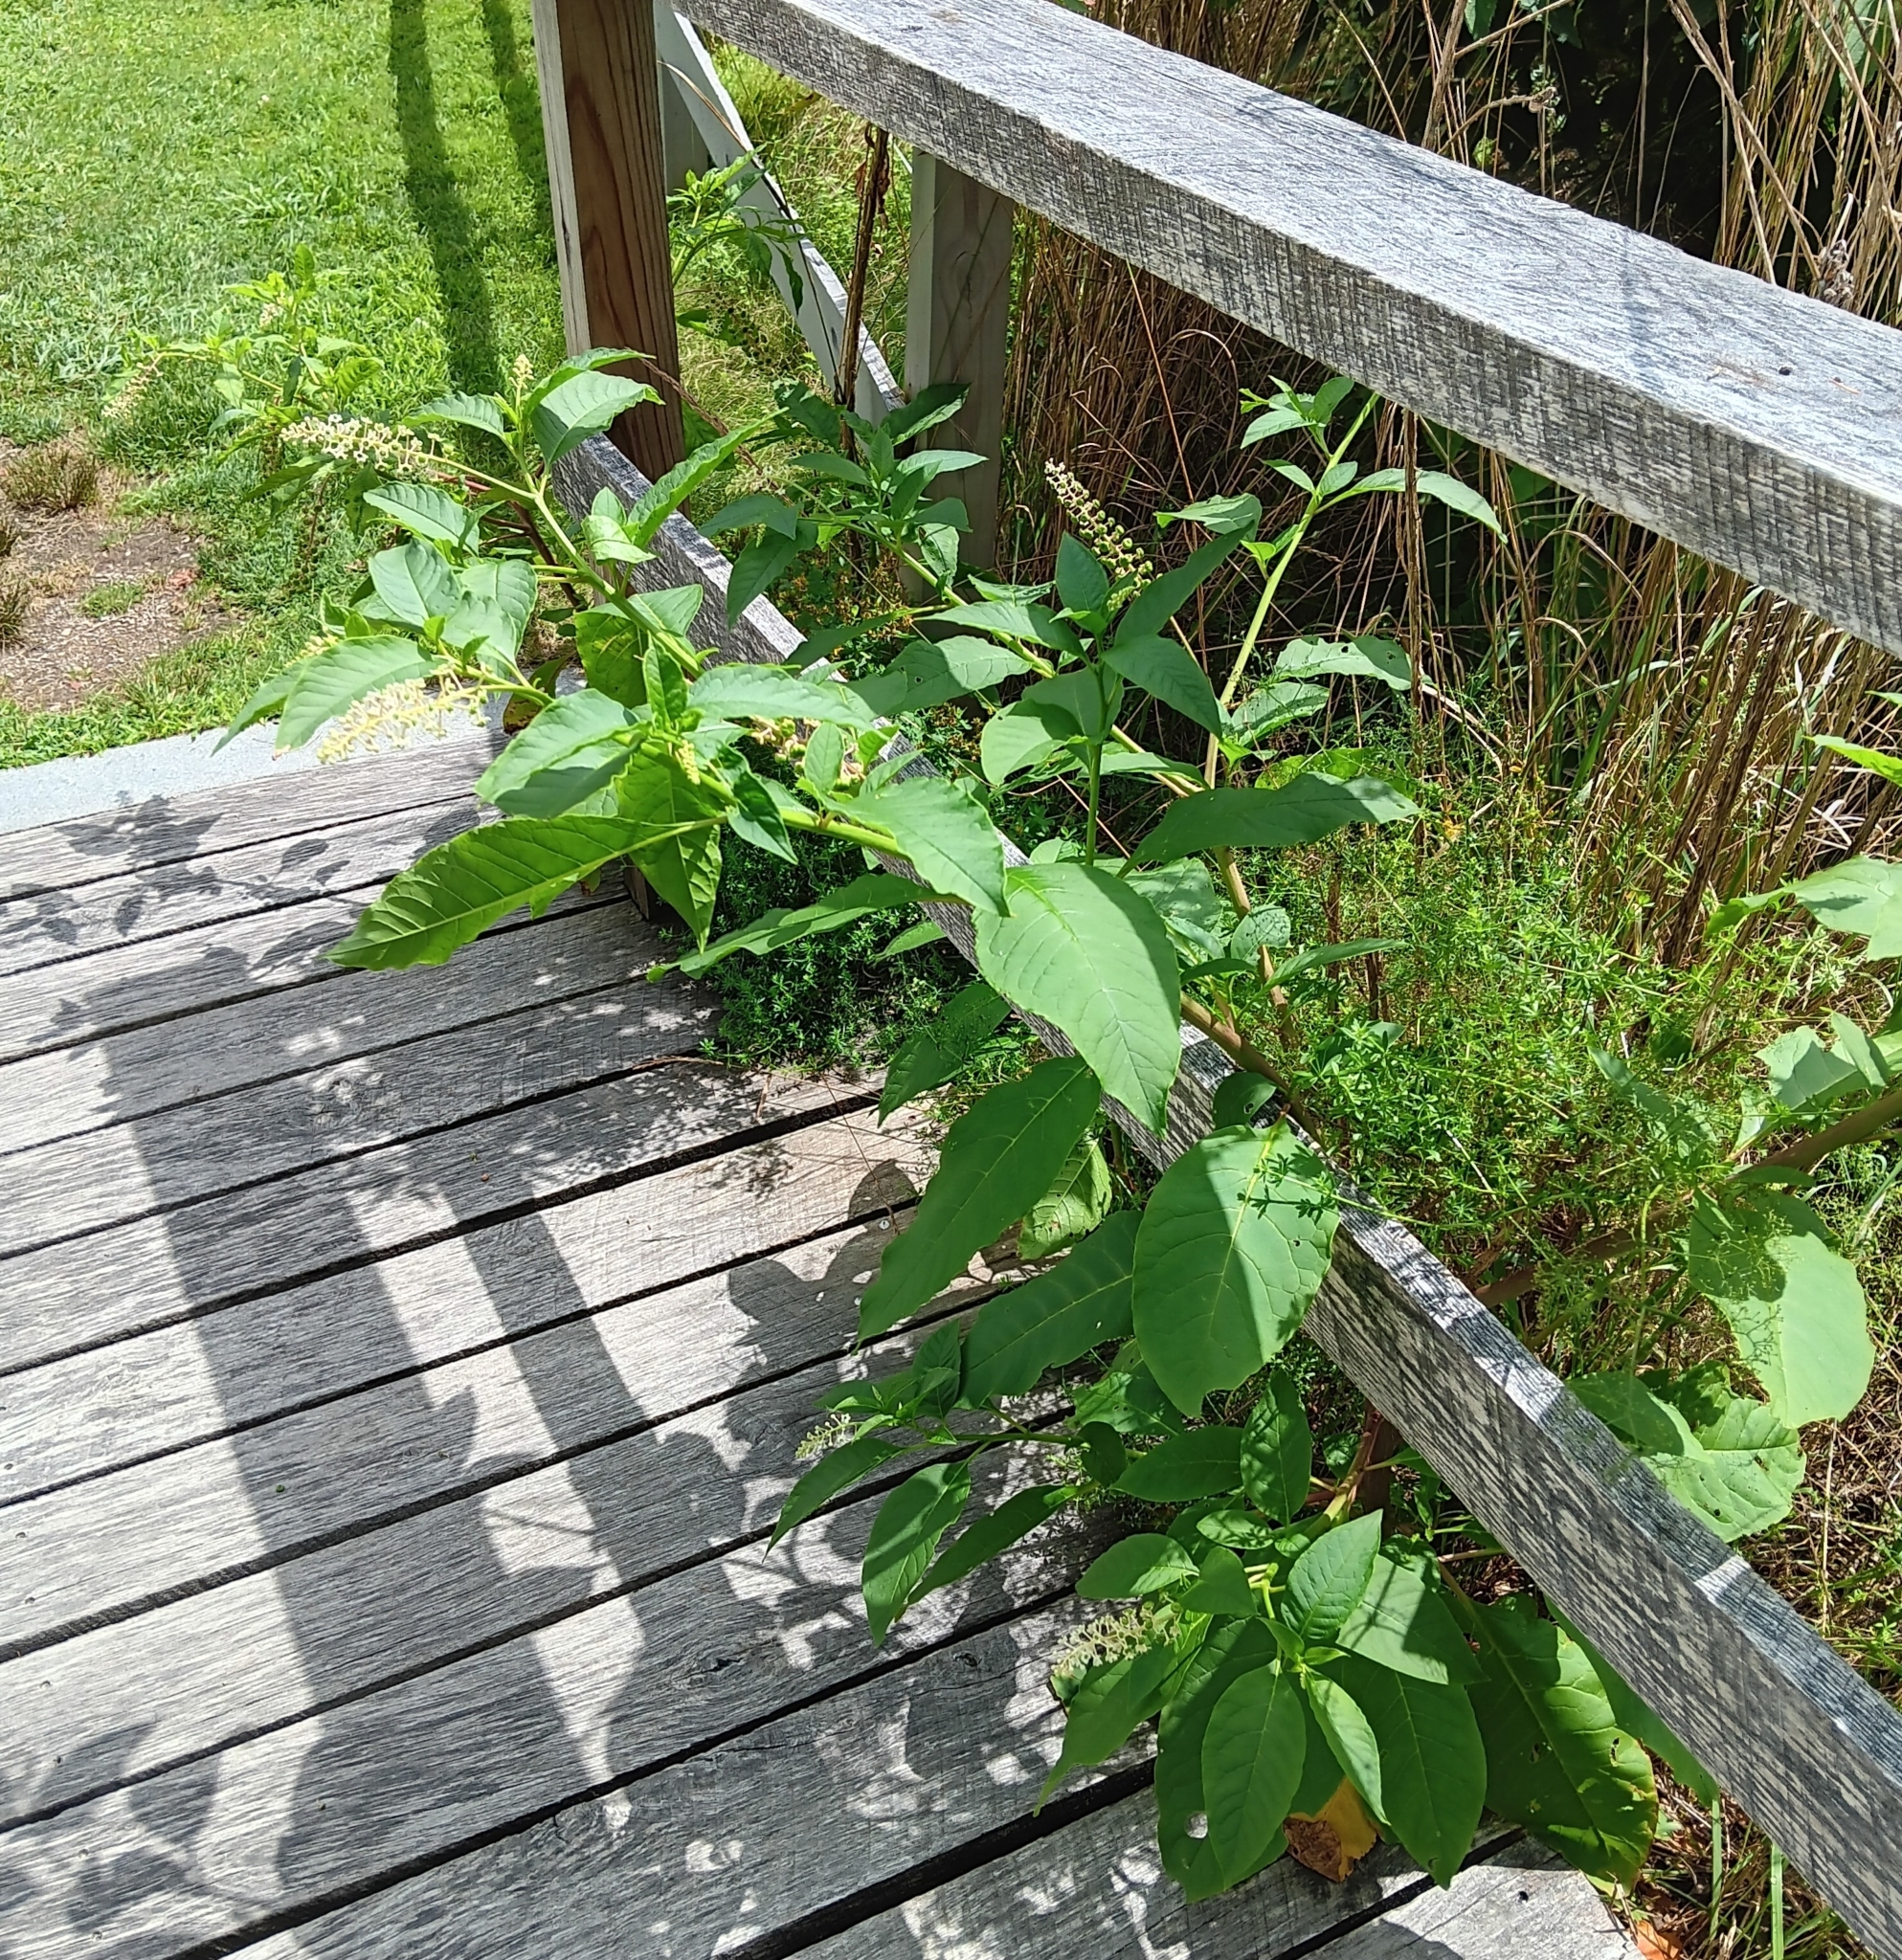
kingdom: Plantae
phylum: Tracheophyta
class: Magnoliopsida
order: Caryophyllales
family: Phytolaccaceae
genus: Phytolacca
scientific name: Phytolacca americana
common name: American pokeweed
